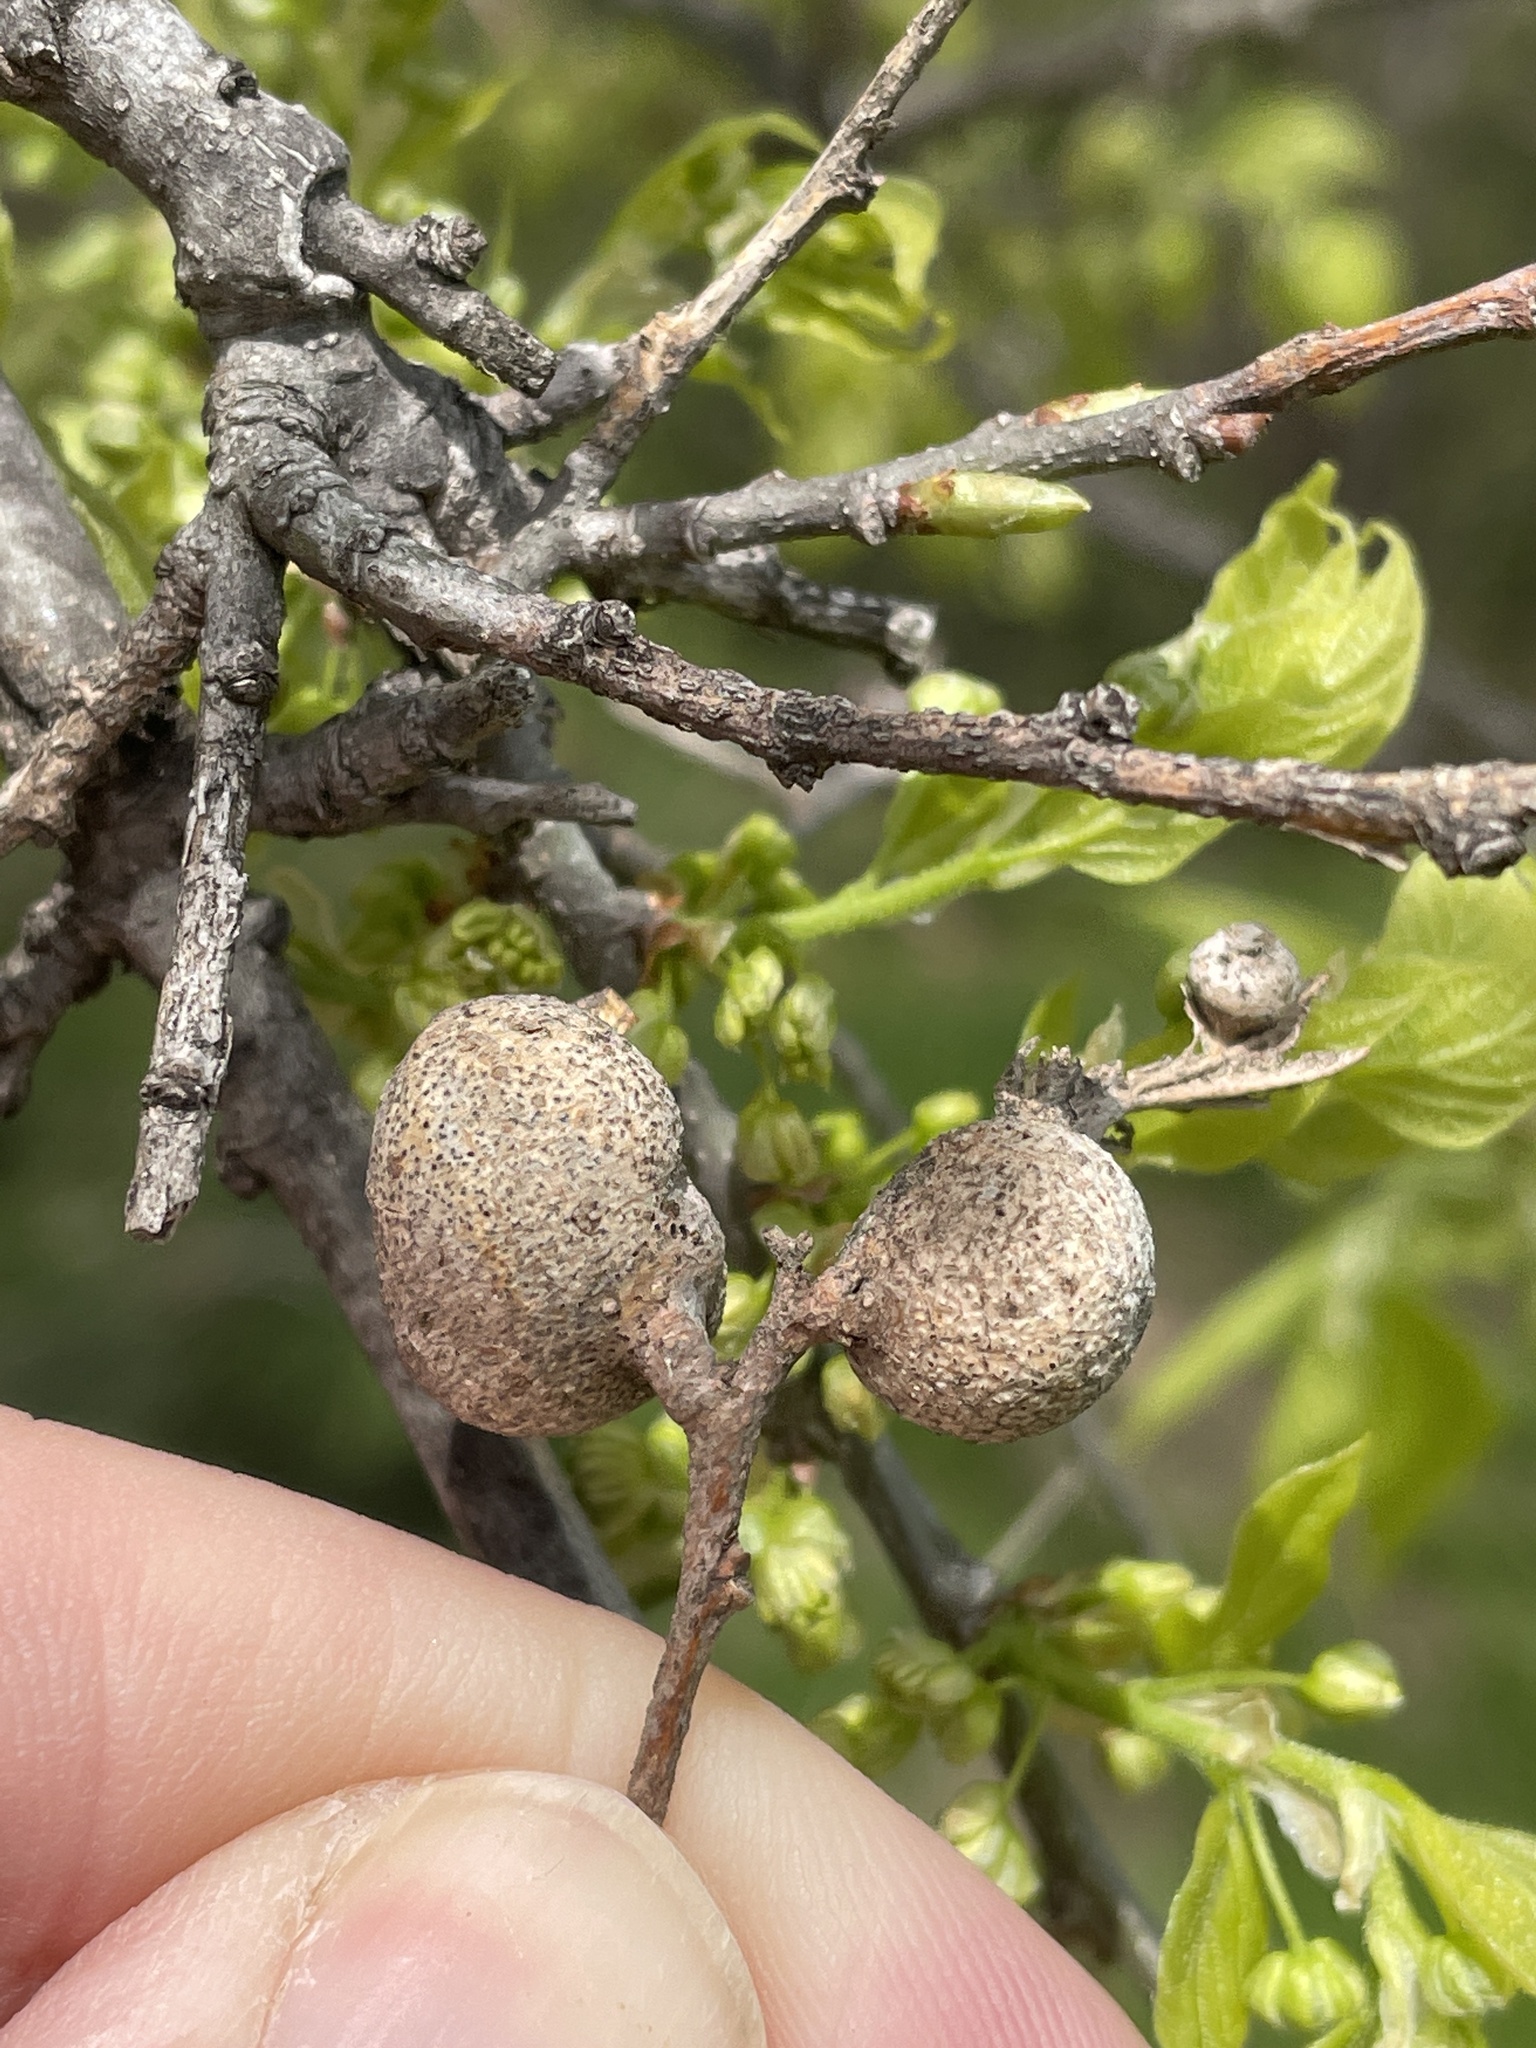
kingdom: Animalia
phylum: Arthropoda
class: Insecta
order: Hemiptera
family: Aphalaridae
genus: Pachypsylla
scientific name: Pachypsylla venusta
